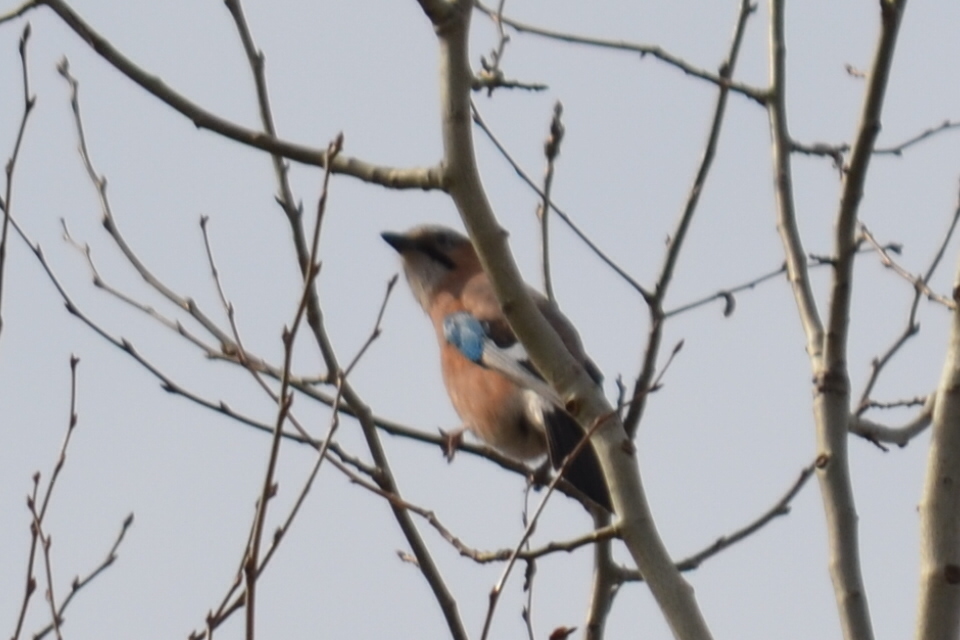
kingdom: Animalia
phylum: Chordata
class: Aves
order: Passeriformes
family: Corvidae
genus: Garrulus
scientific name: Garrulus glandarius
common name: Eurasian jay
